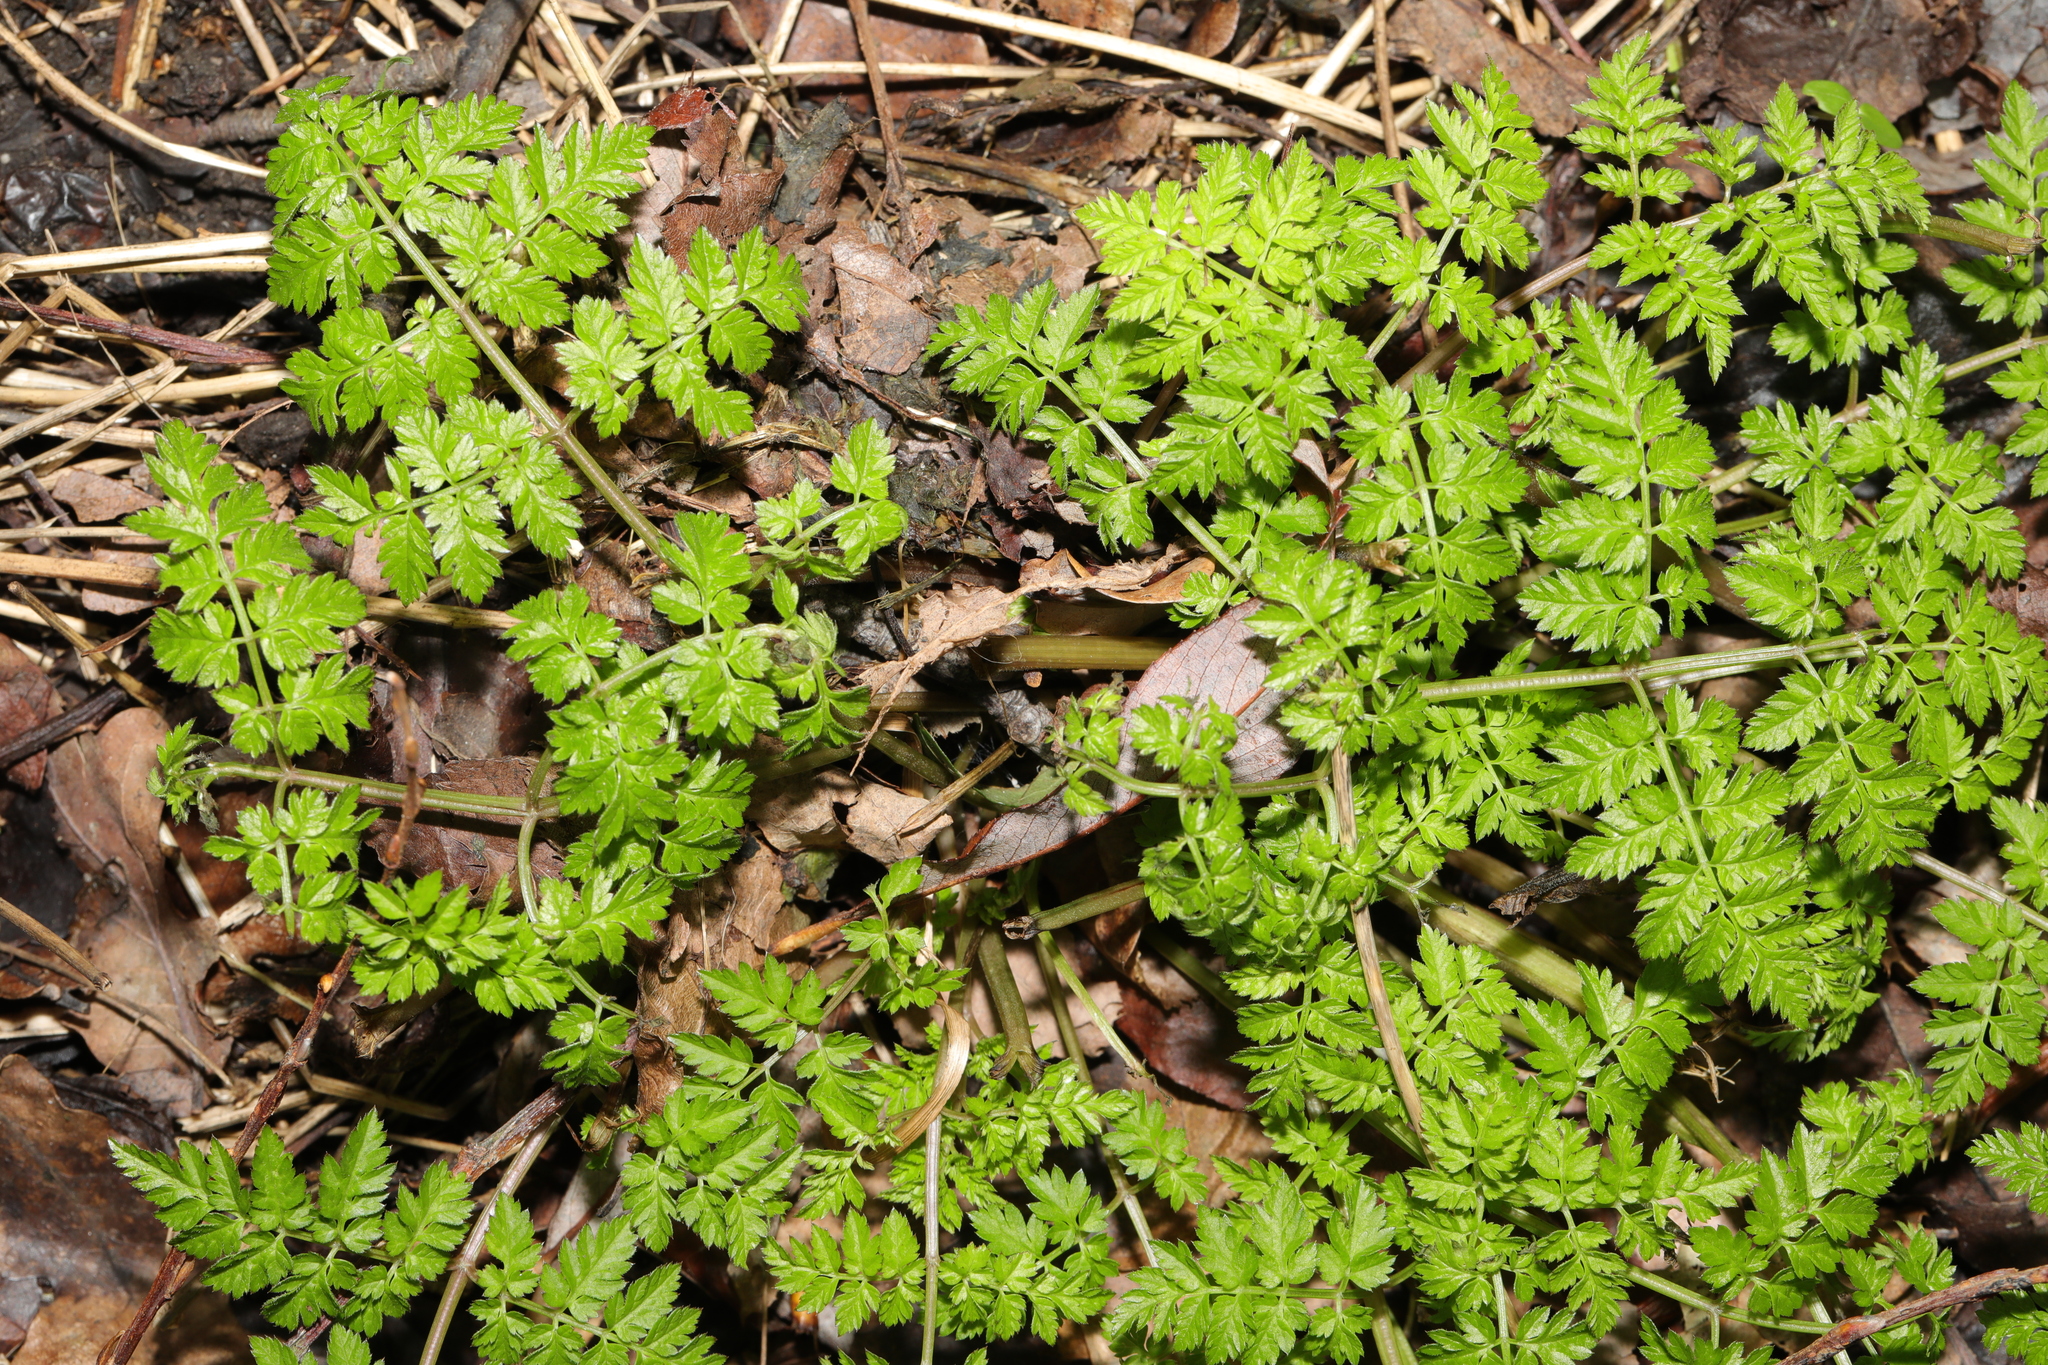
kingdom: Plantae
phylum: Tracheophyta
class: Magnoliopsida
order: Apiales
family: Apiaceae
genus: Anthriscus
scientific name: Anthriscus sylvestris
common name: Cow parsley
